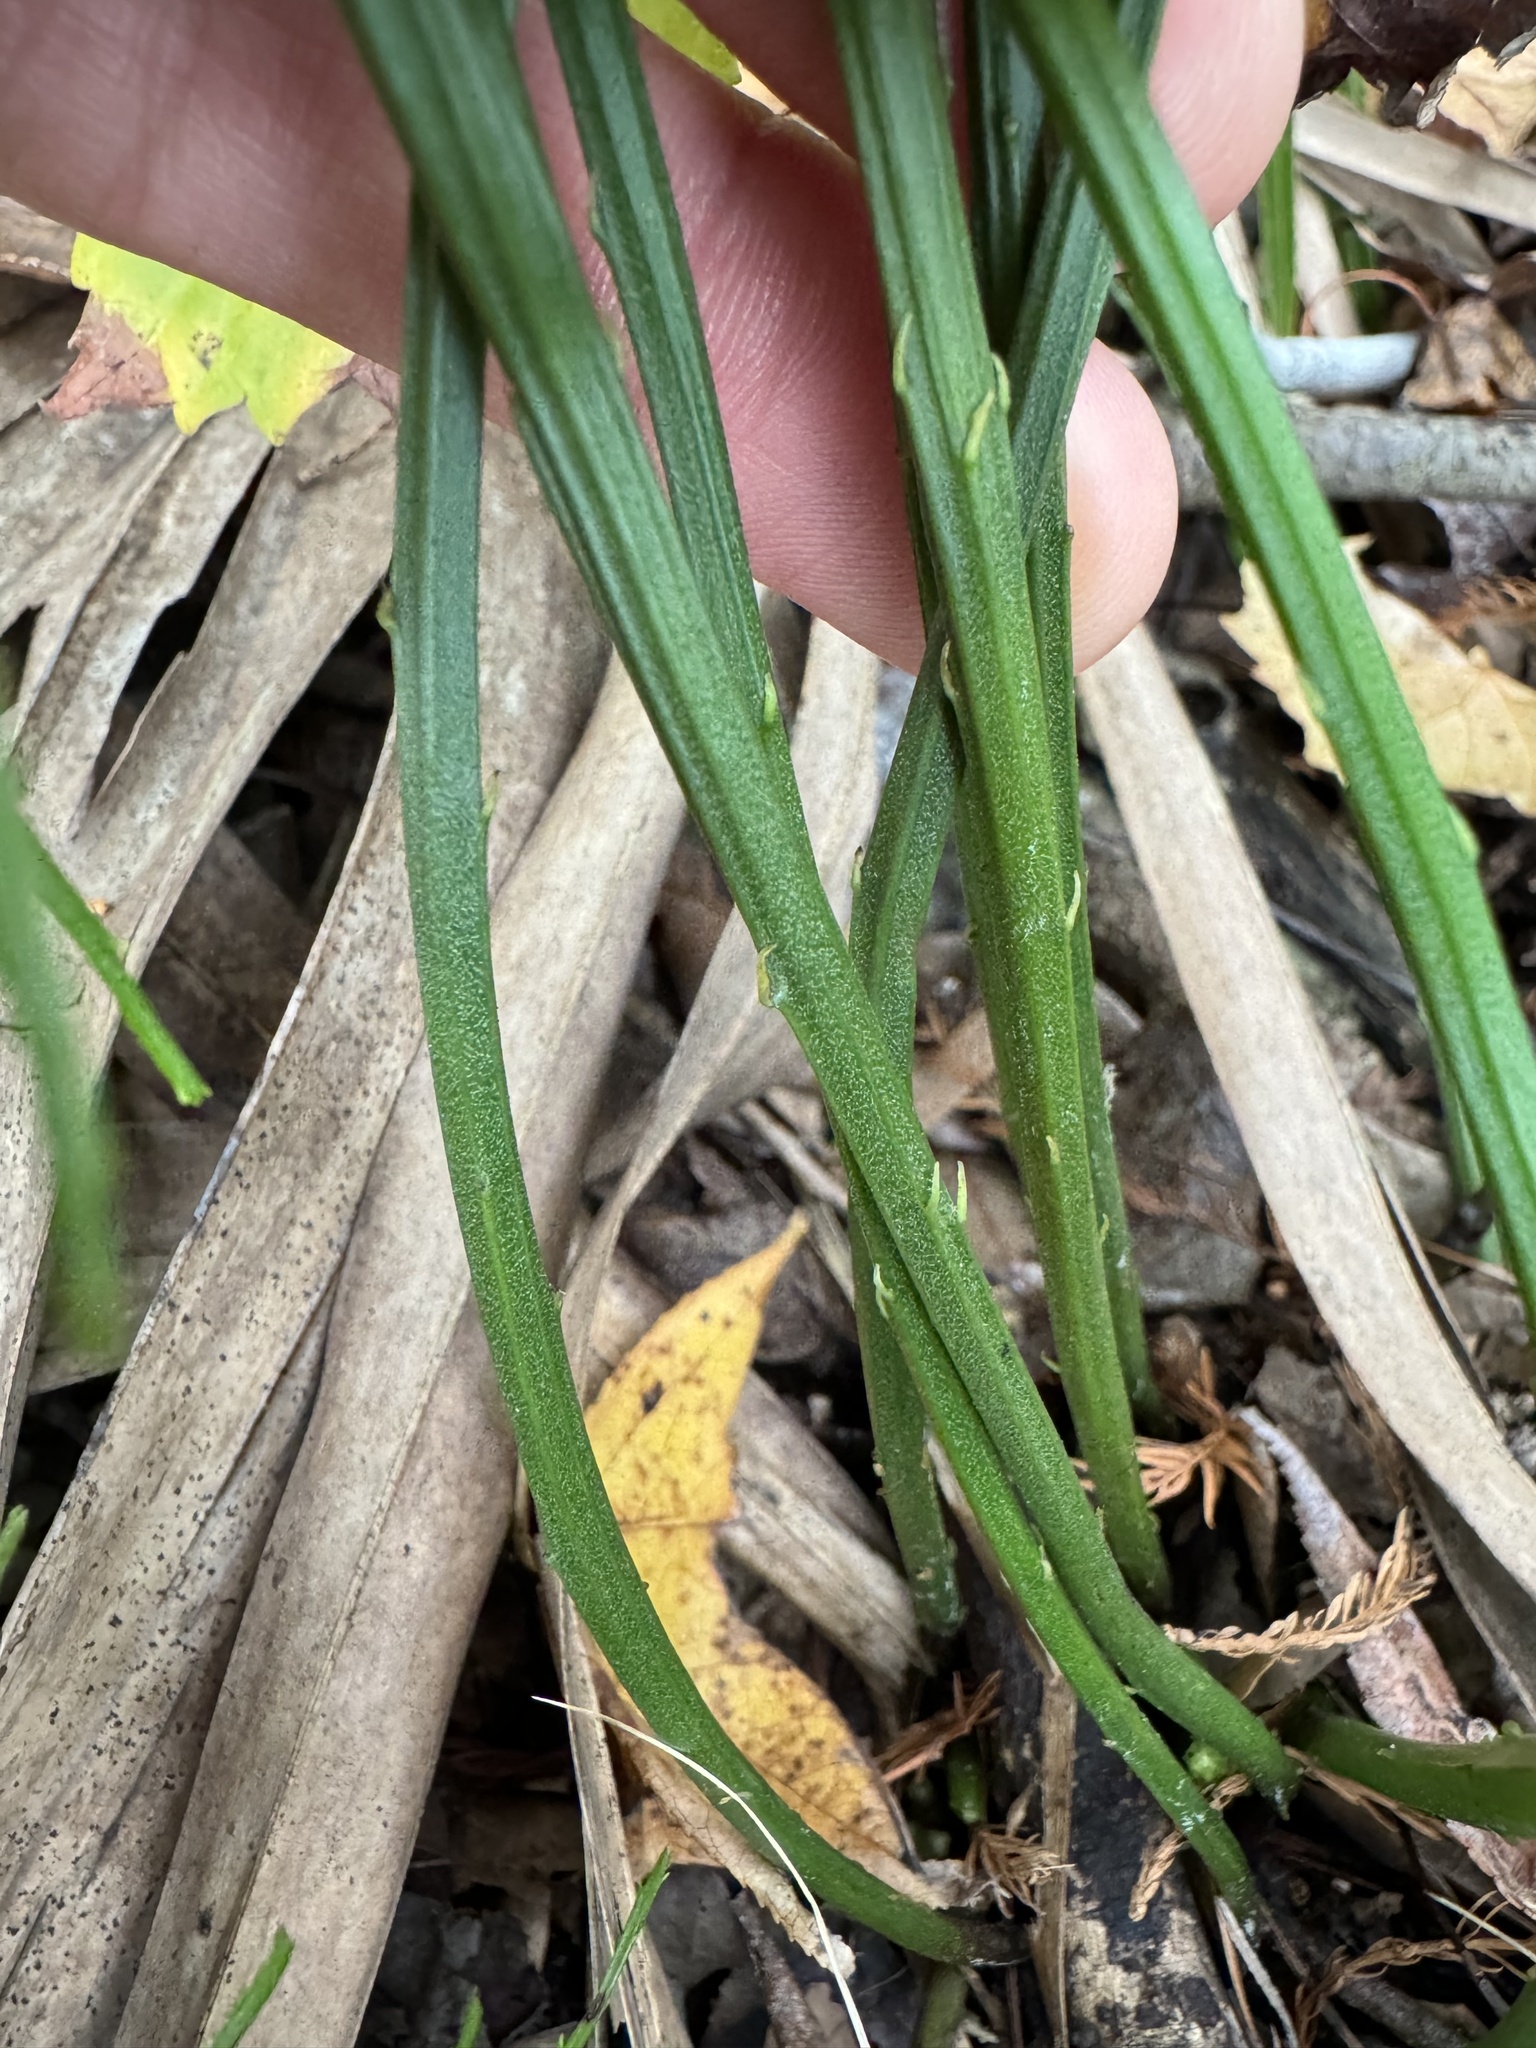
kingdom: Plantae
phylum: Tracheophyta
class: Polypodiopsida
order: Psilotales
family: Psilotaceae
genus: Psilotum
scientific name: Psilotum nudum
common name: Skeleton fork fern
